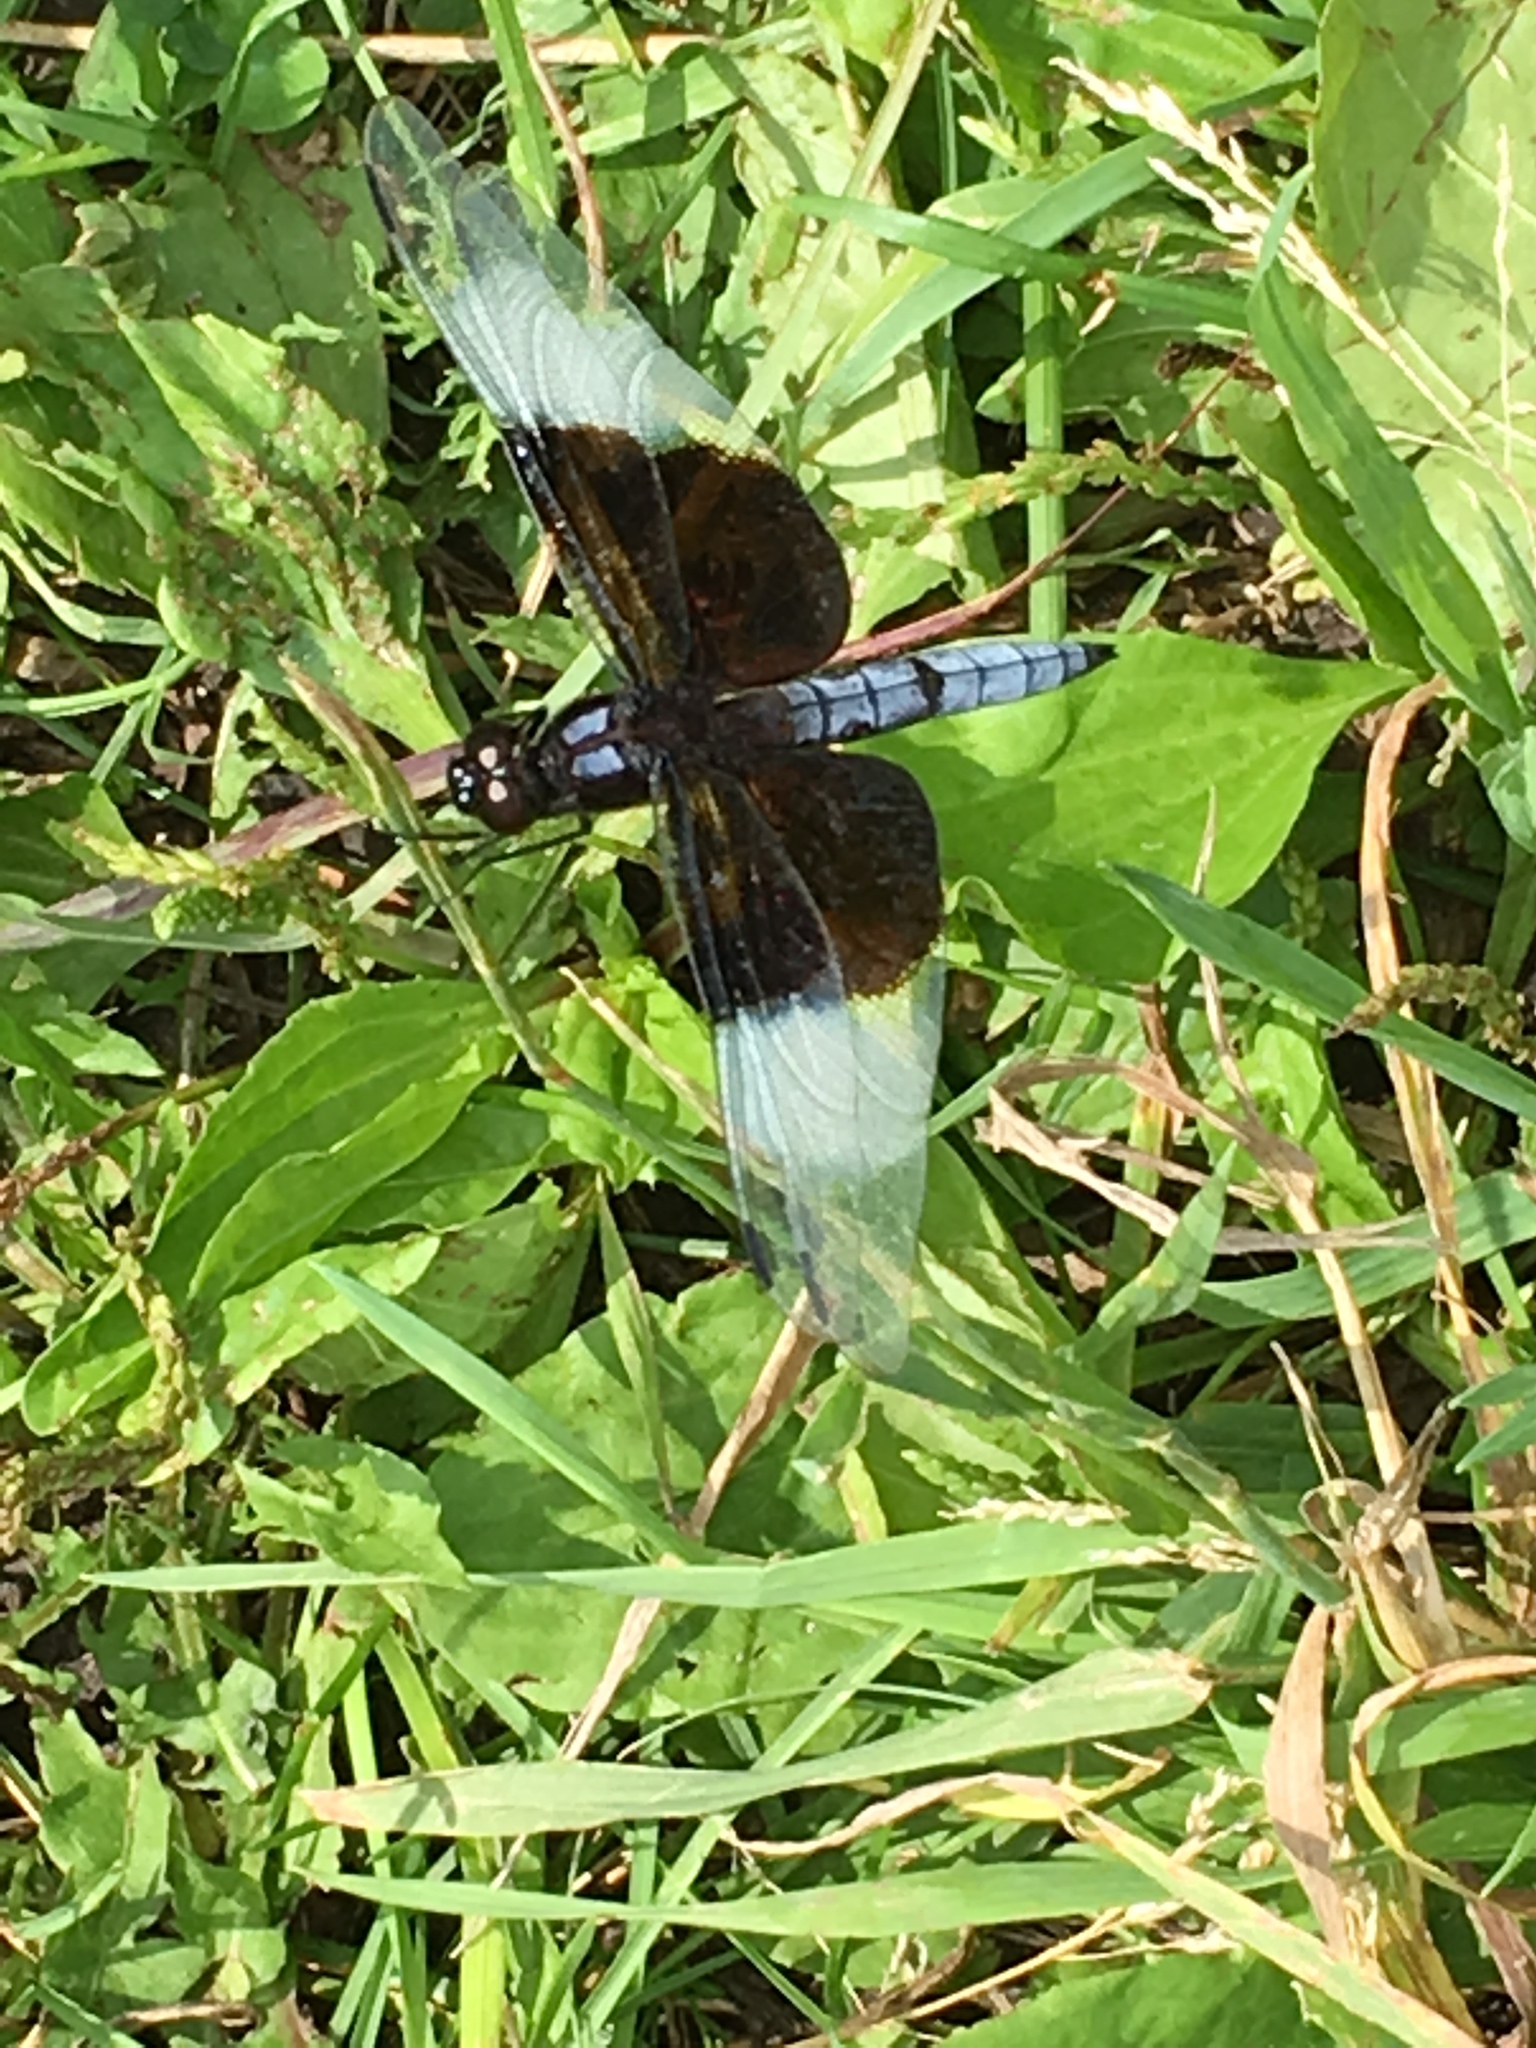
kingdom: Animalia
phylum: Arthropoda
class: Insecta
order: Odonata
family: Libellulidae
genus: Libellula
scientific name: Libellula luctuosa
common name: Widow skimmer
